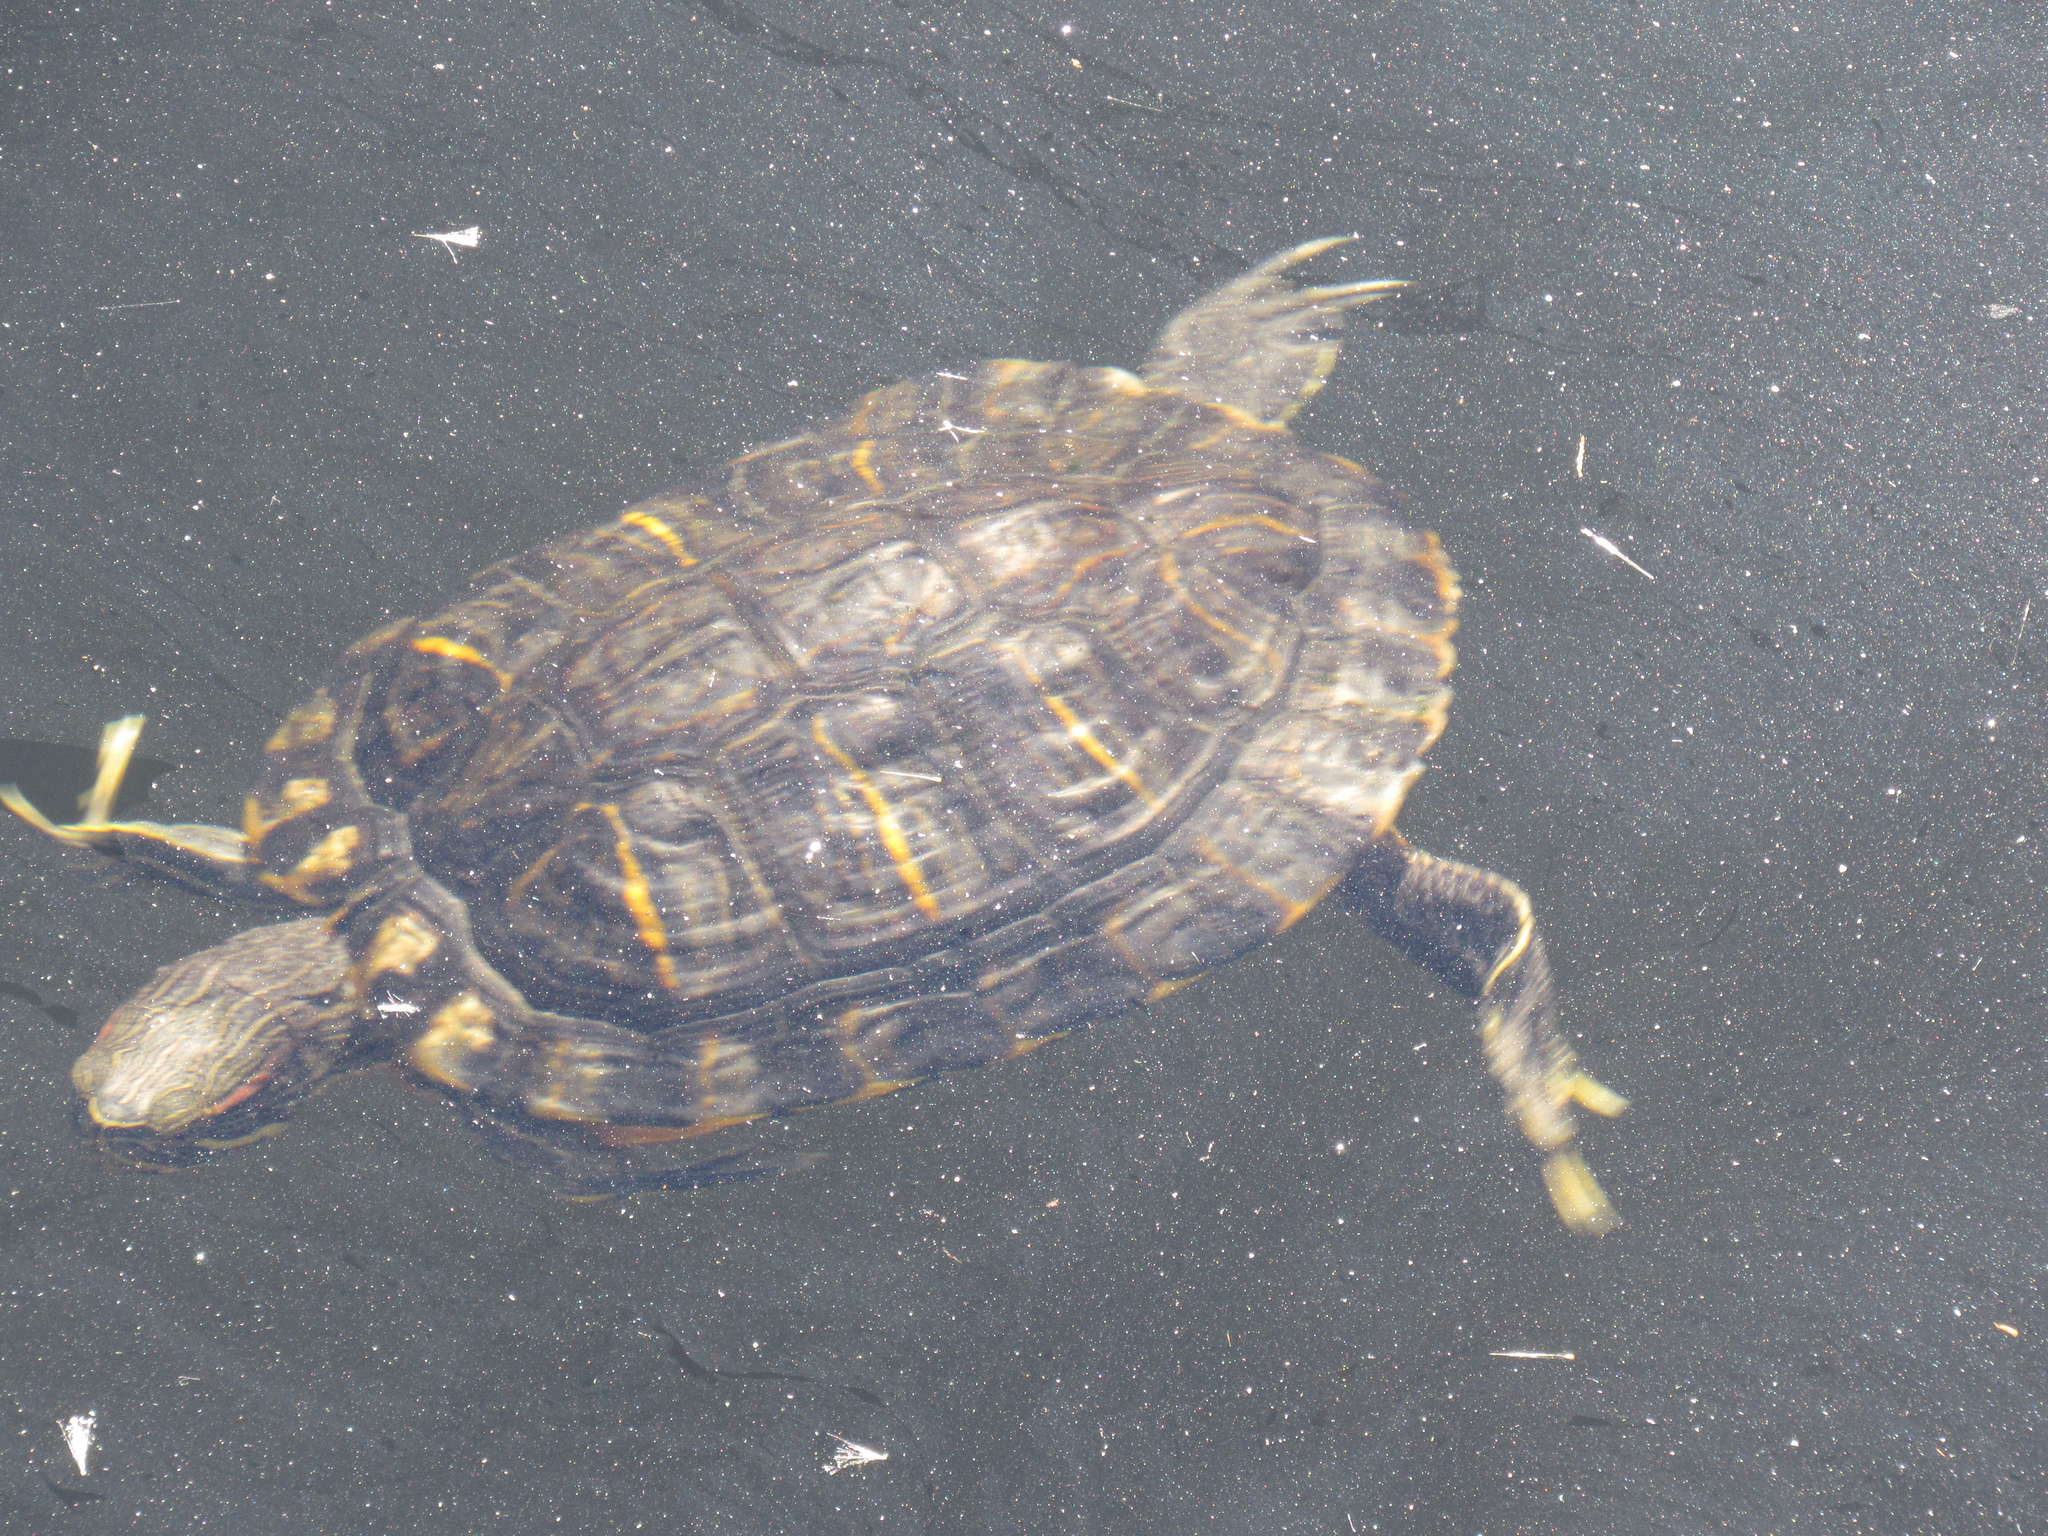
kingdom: Animalia
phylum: Chordata
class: Testudines
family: Emydidae
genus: Trachemys
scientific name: Trachemys scripta
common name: Slider
